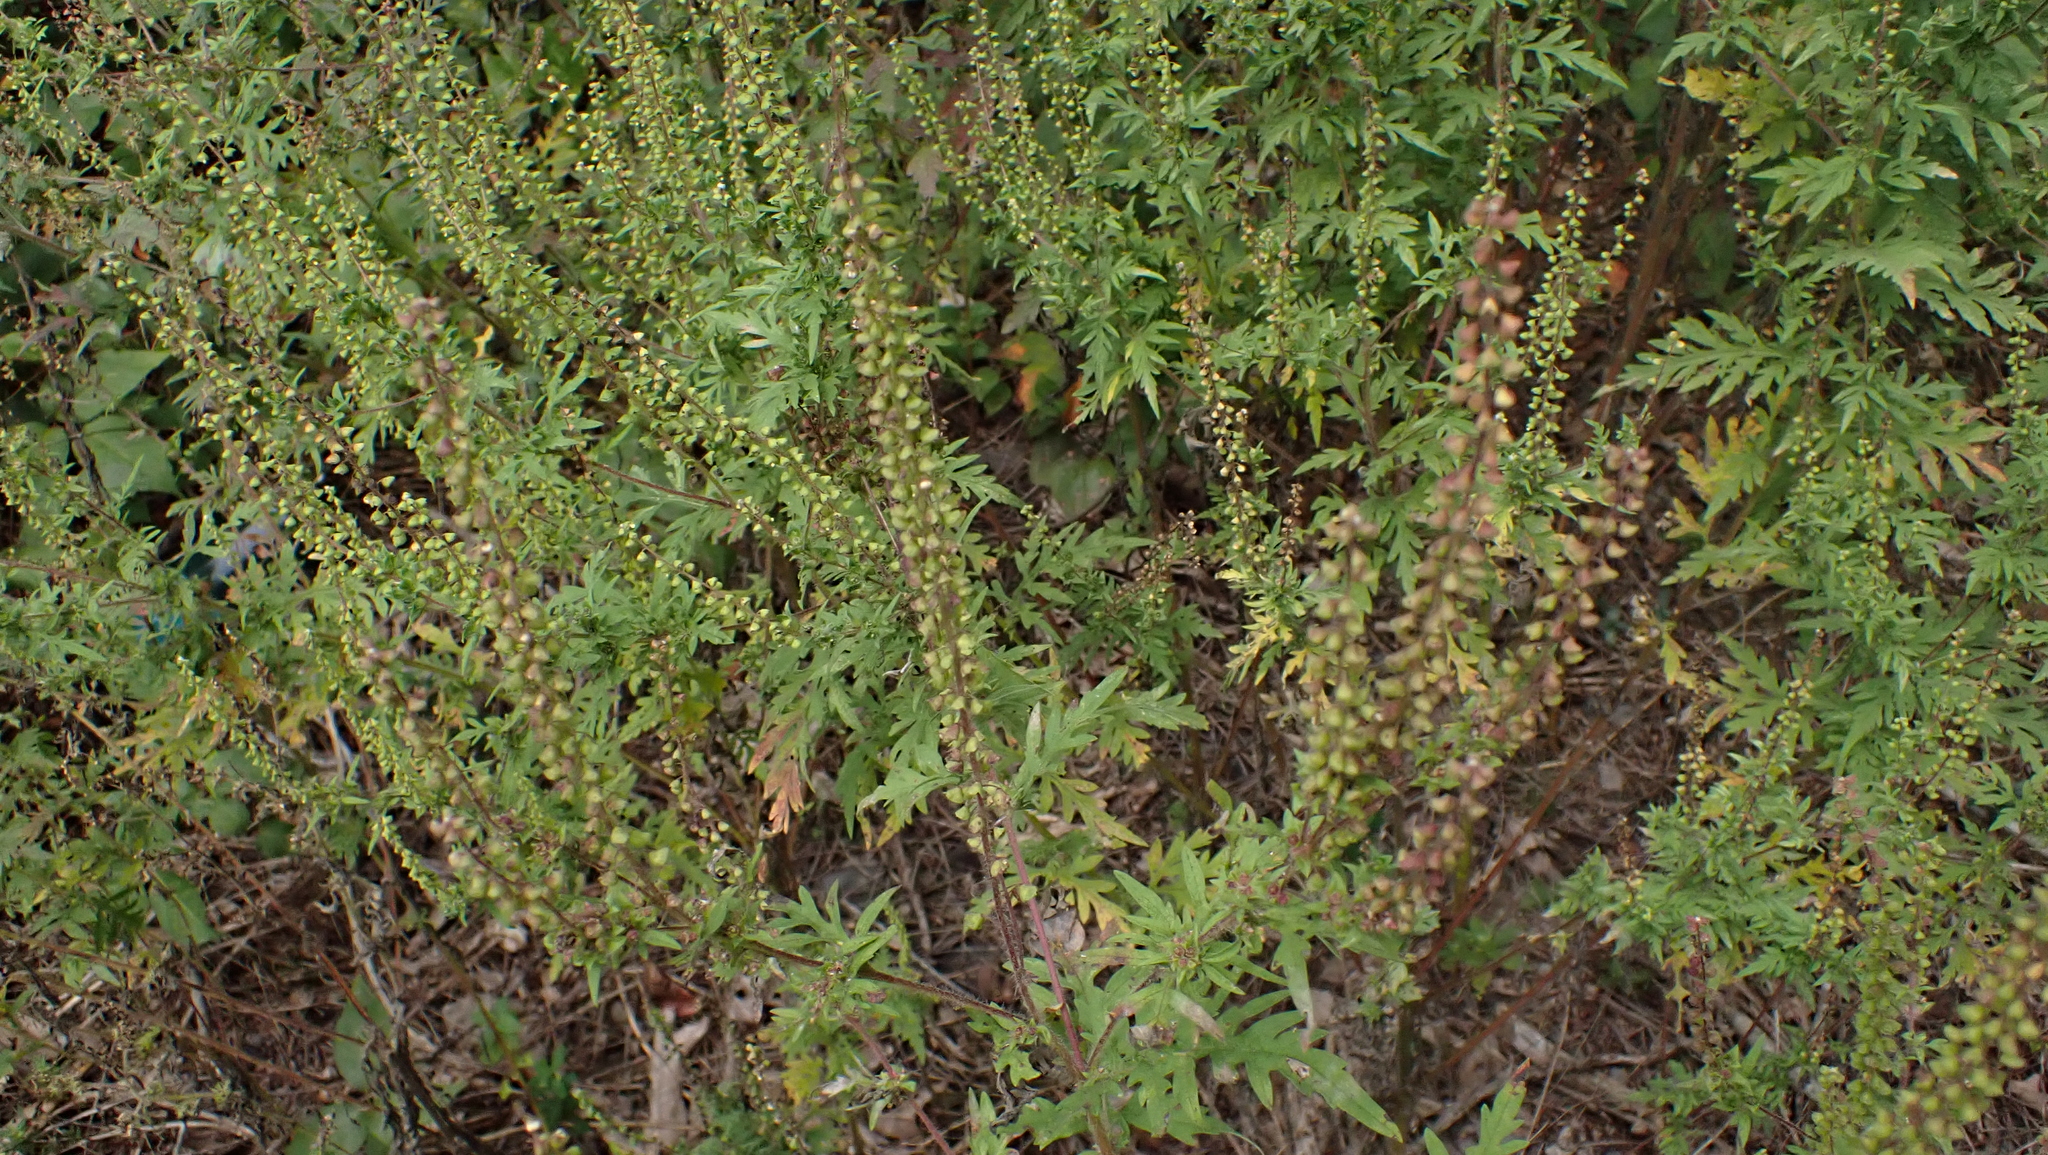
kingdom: Plantae
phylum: Tracheophyta
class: Magnoliopsida
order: Asterales
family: Asteraceae
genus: Ambrosia
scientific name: Ambrosia artemisiifolia
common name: Annual ragweed
